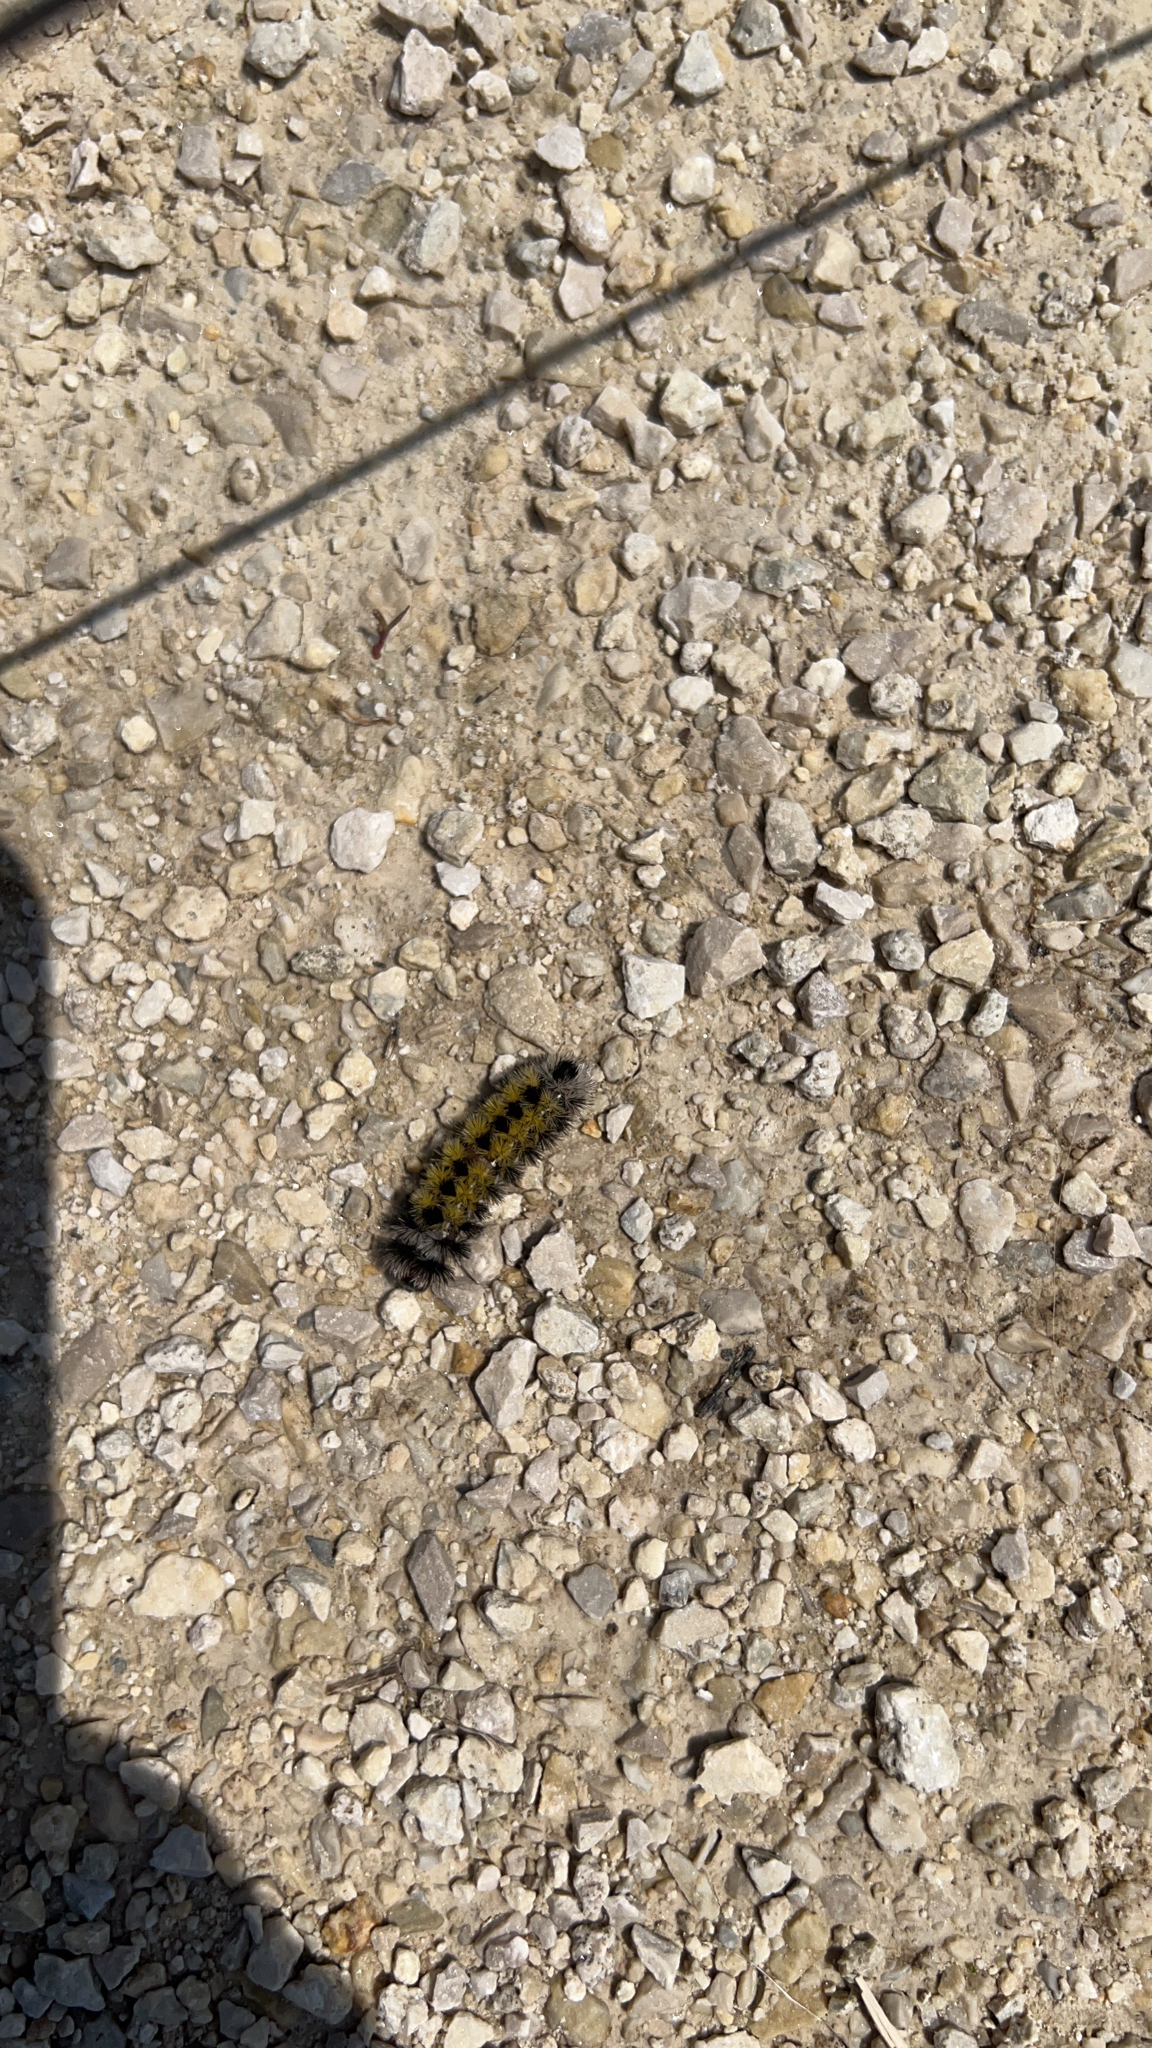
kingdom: Animalia
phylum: Arthropoda
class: Insecta
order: Lepidoptera
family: Erebidae
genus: Ctenucha
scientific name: Ctenucha virginica
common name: Virginia ctenucha moth
